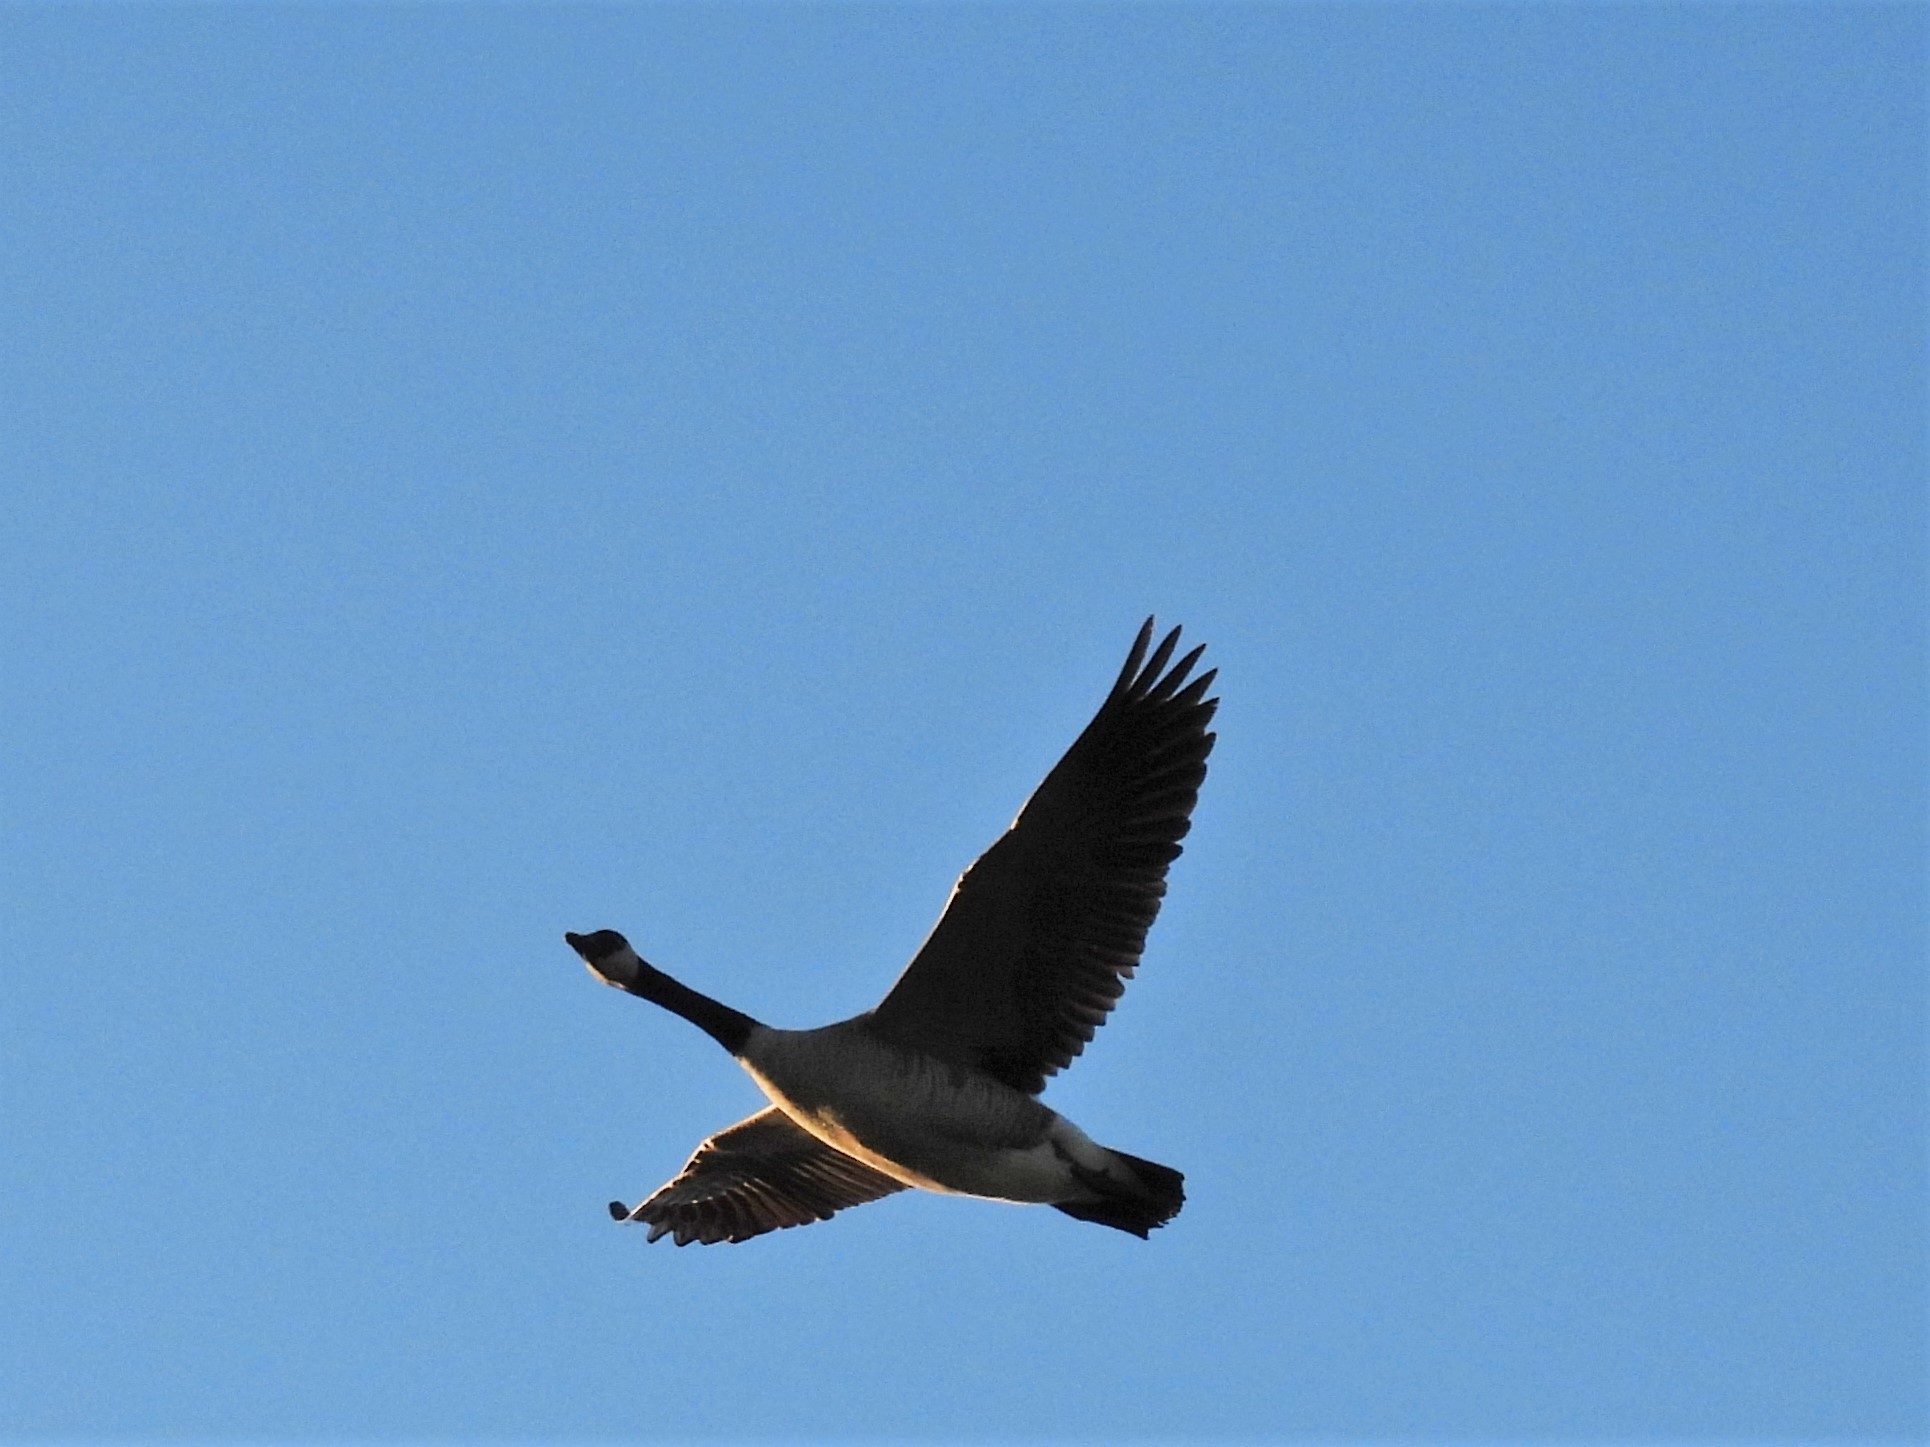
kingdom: Animalia
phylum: Chordata
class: Aves
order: Anseriformes
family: Anatidae
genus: Branta
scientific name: Branta canadensis
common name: Canada goose
